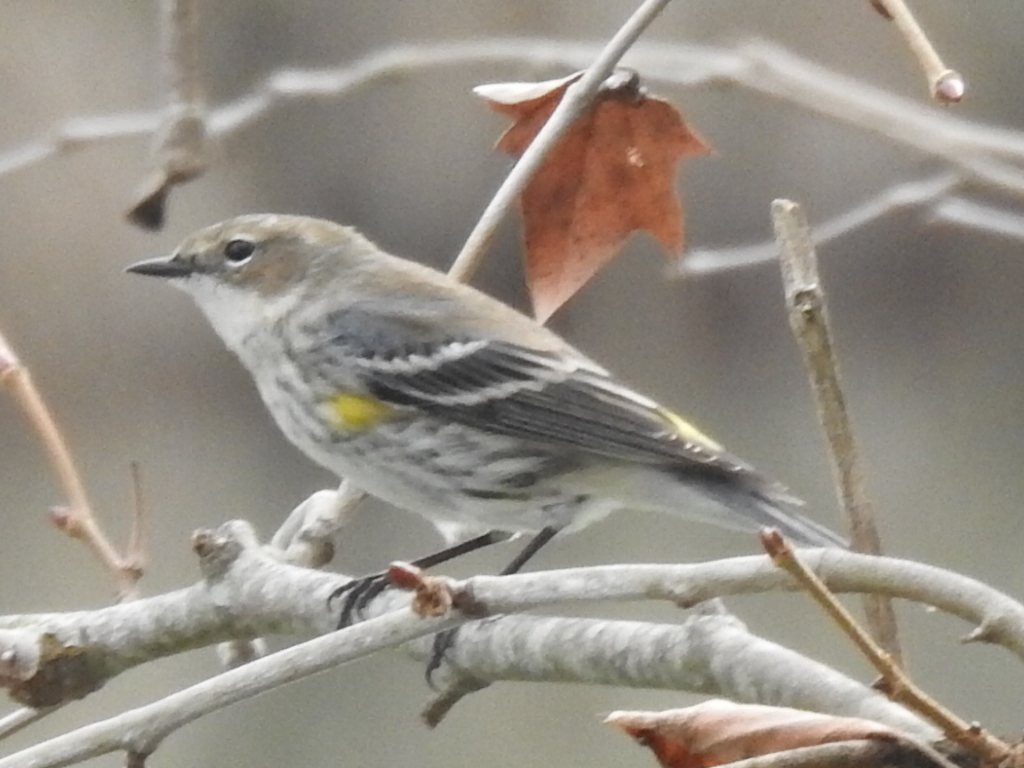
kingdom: Animalia
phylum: Chordata
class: Aves
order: Passeriformes
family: Parulidae
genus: Setophaga
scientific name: Setophaga coronata
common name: Myrtle warbler
